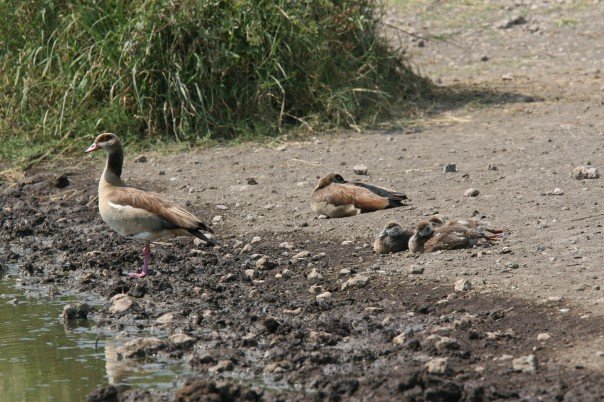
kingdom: Animalia
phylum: Chordata
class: Aves
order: Anseriformes
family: Anatidae
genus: Alopochen
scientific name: Alopochen aegyptiaca
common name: Egyptian goose
